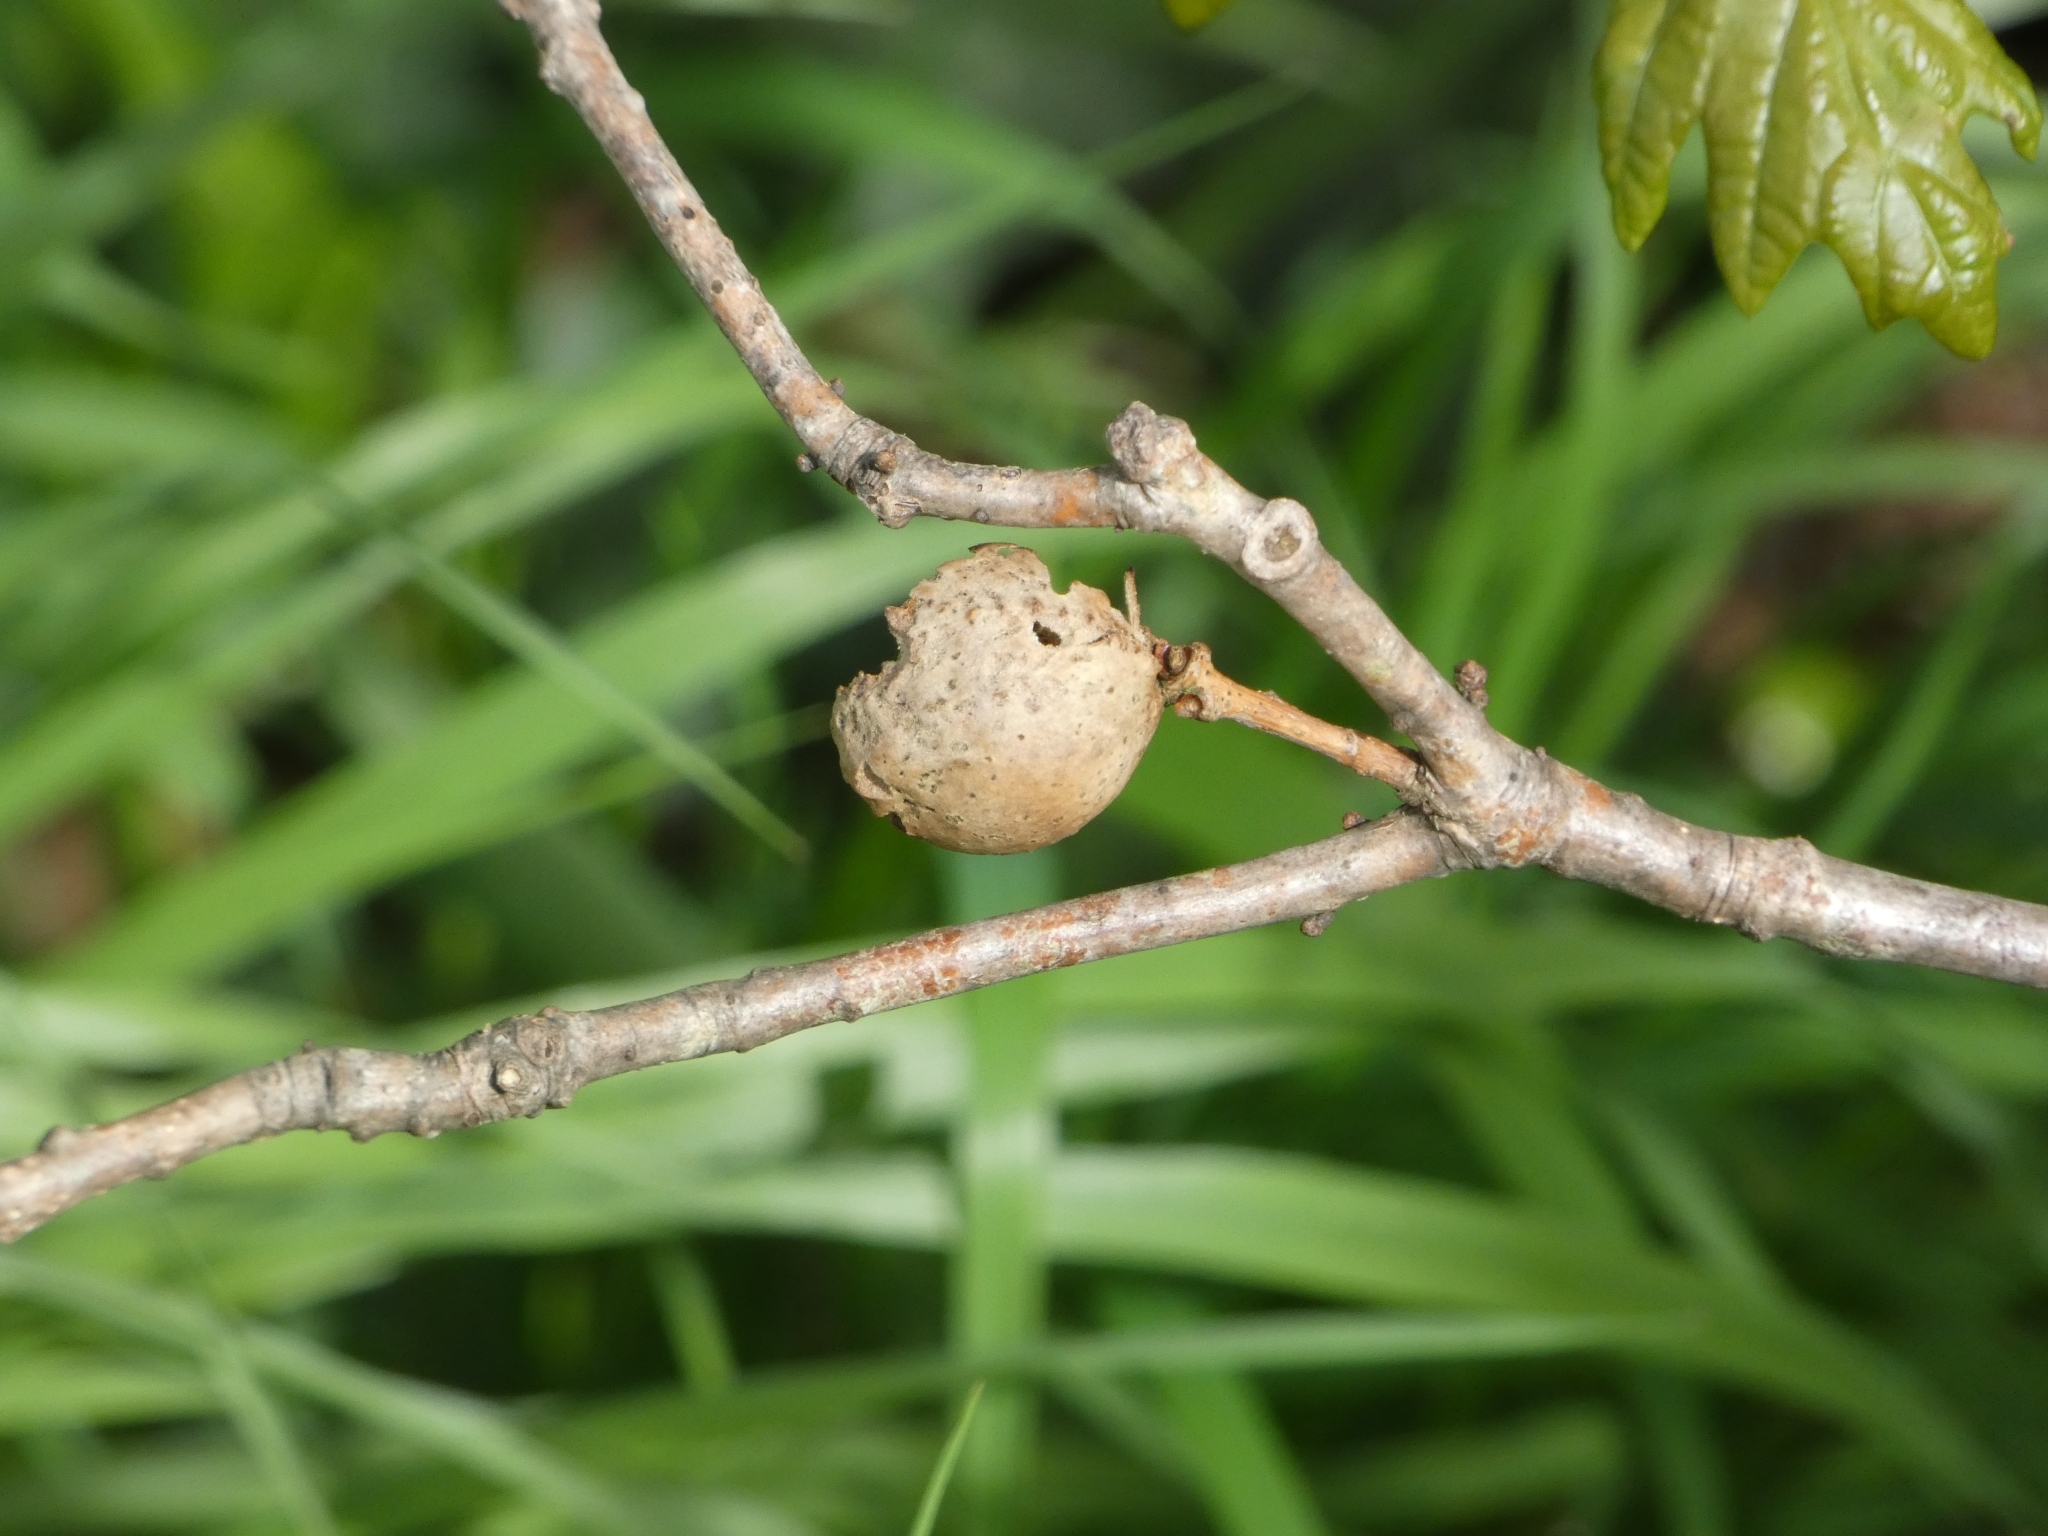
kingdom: Animalia
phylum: Arthropoda
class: Insecta
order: Hymenoptera
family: Cynipidae
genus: Andricus
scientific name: Andricus kollari
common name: Marble gall
